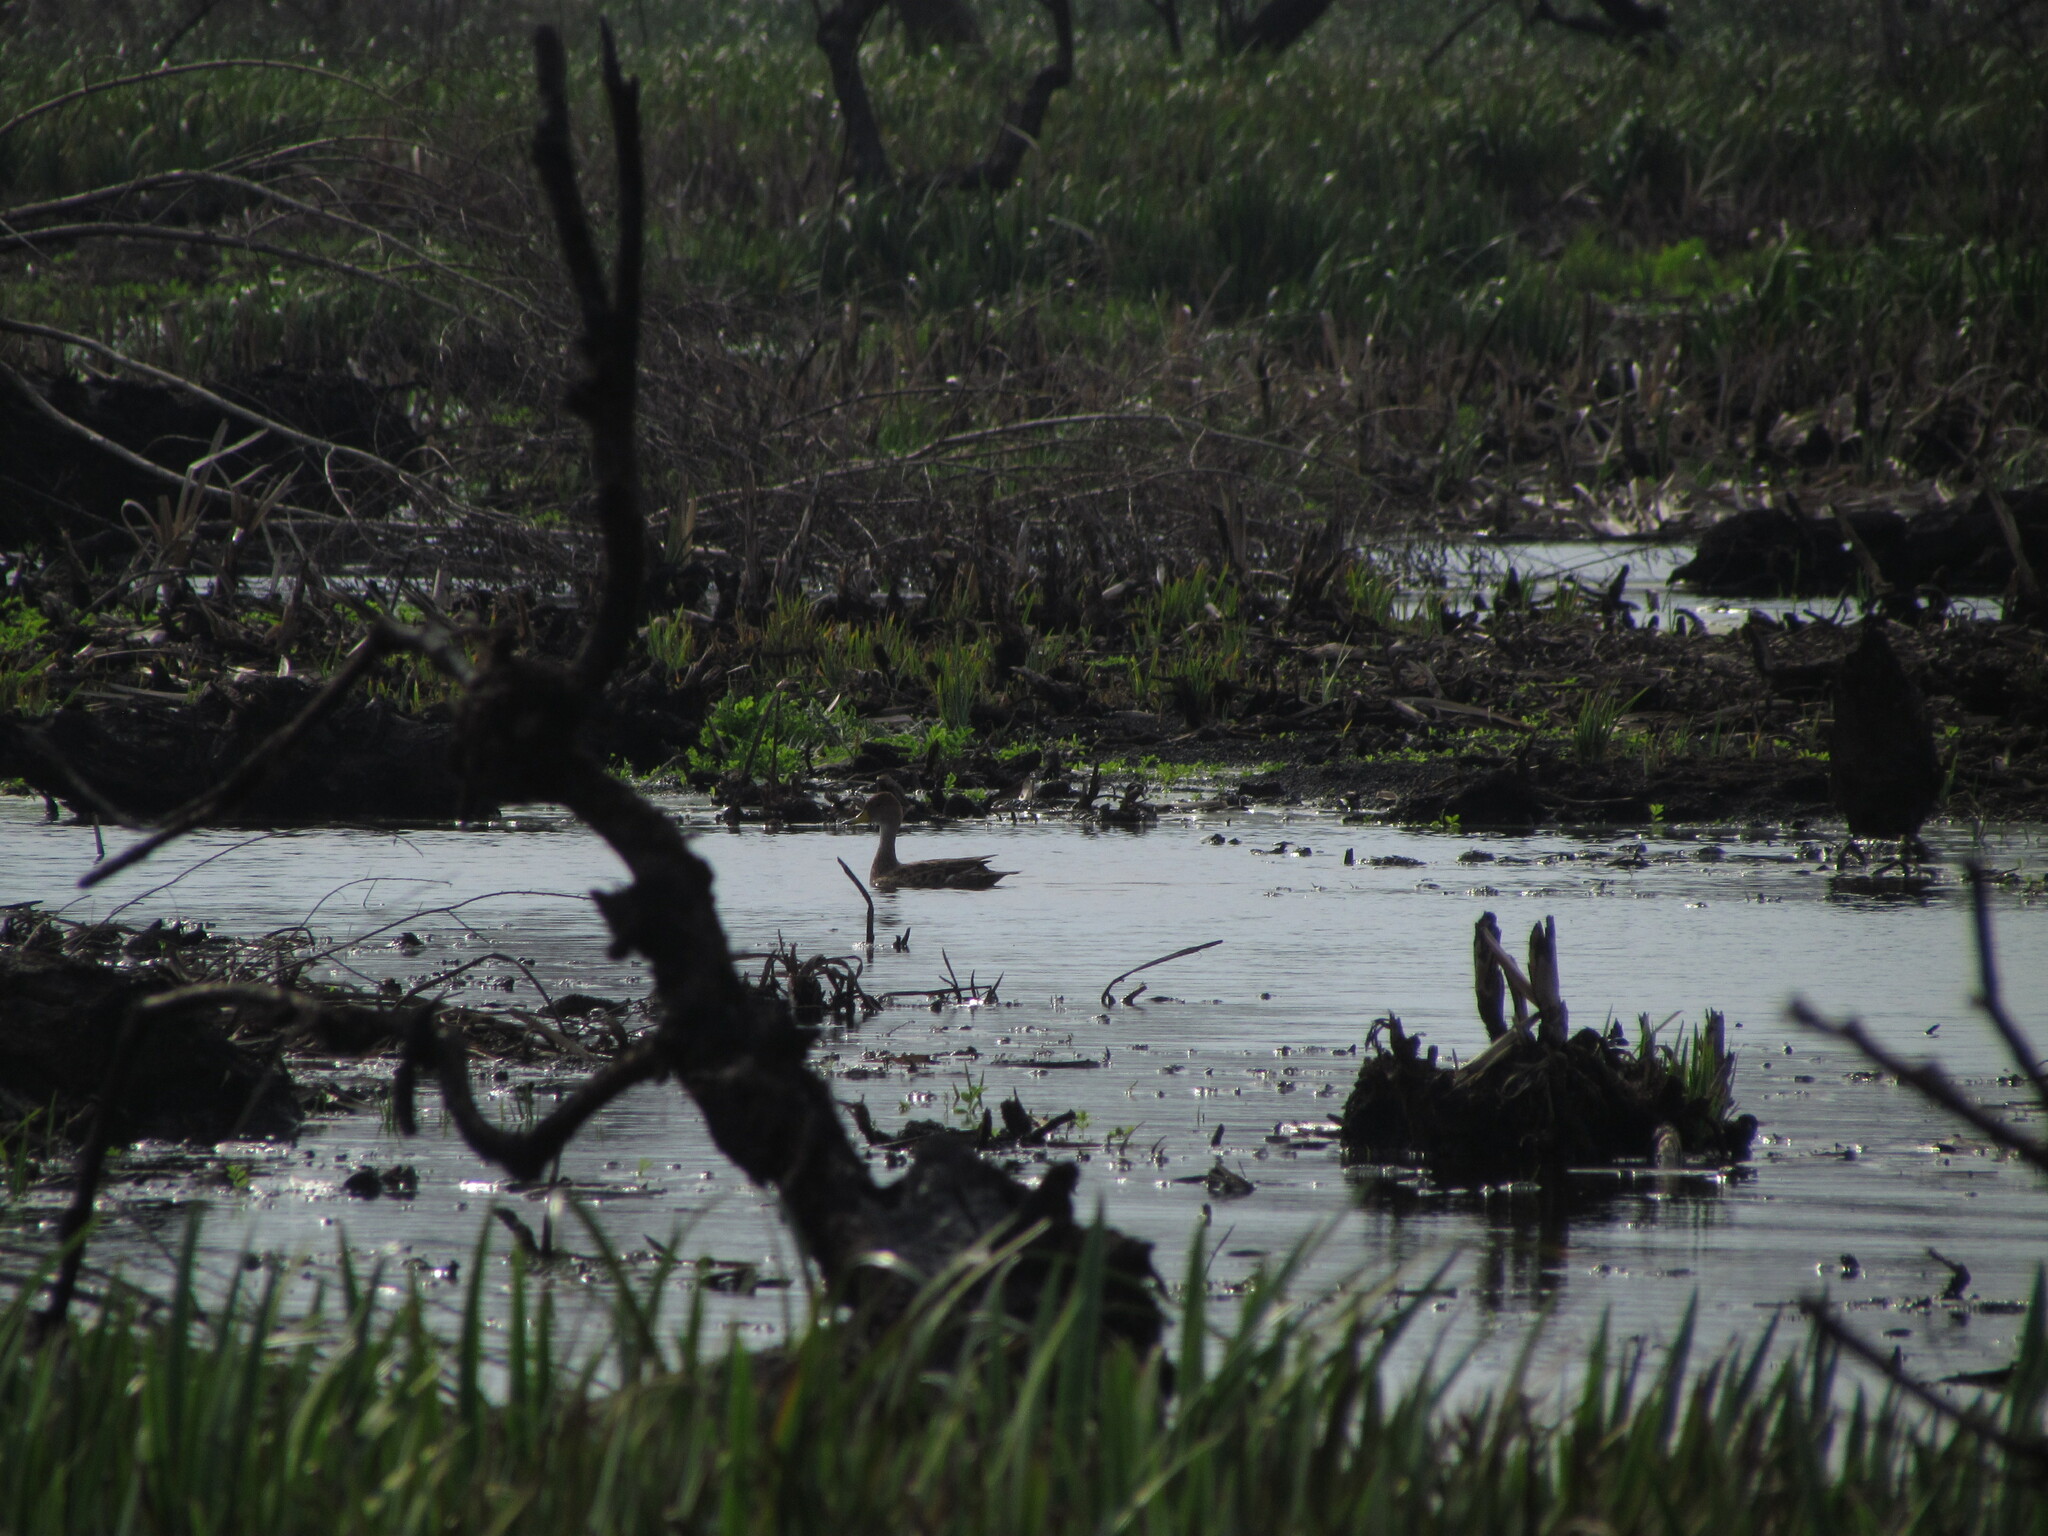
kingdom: Animalia
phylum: Chordata
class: Aves
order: Anseriformes
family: Anatidae
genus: Anas
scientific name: Anas georgica
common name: Yellow-billed pintail
